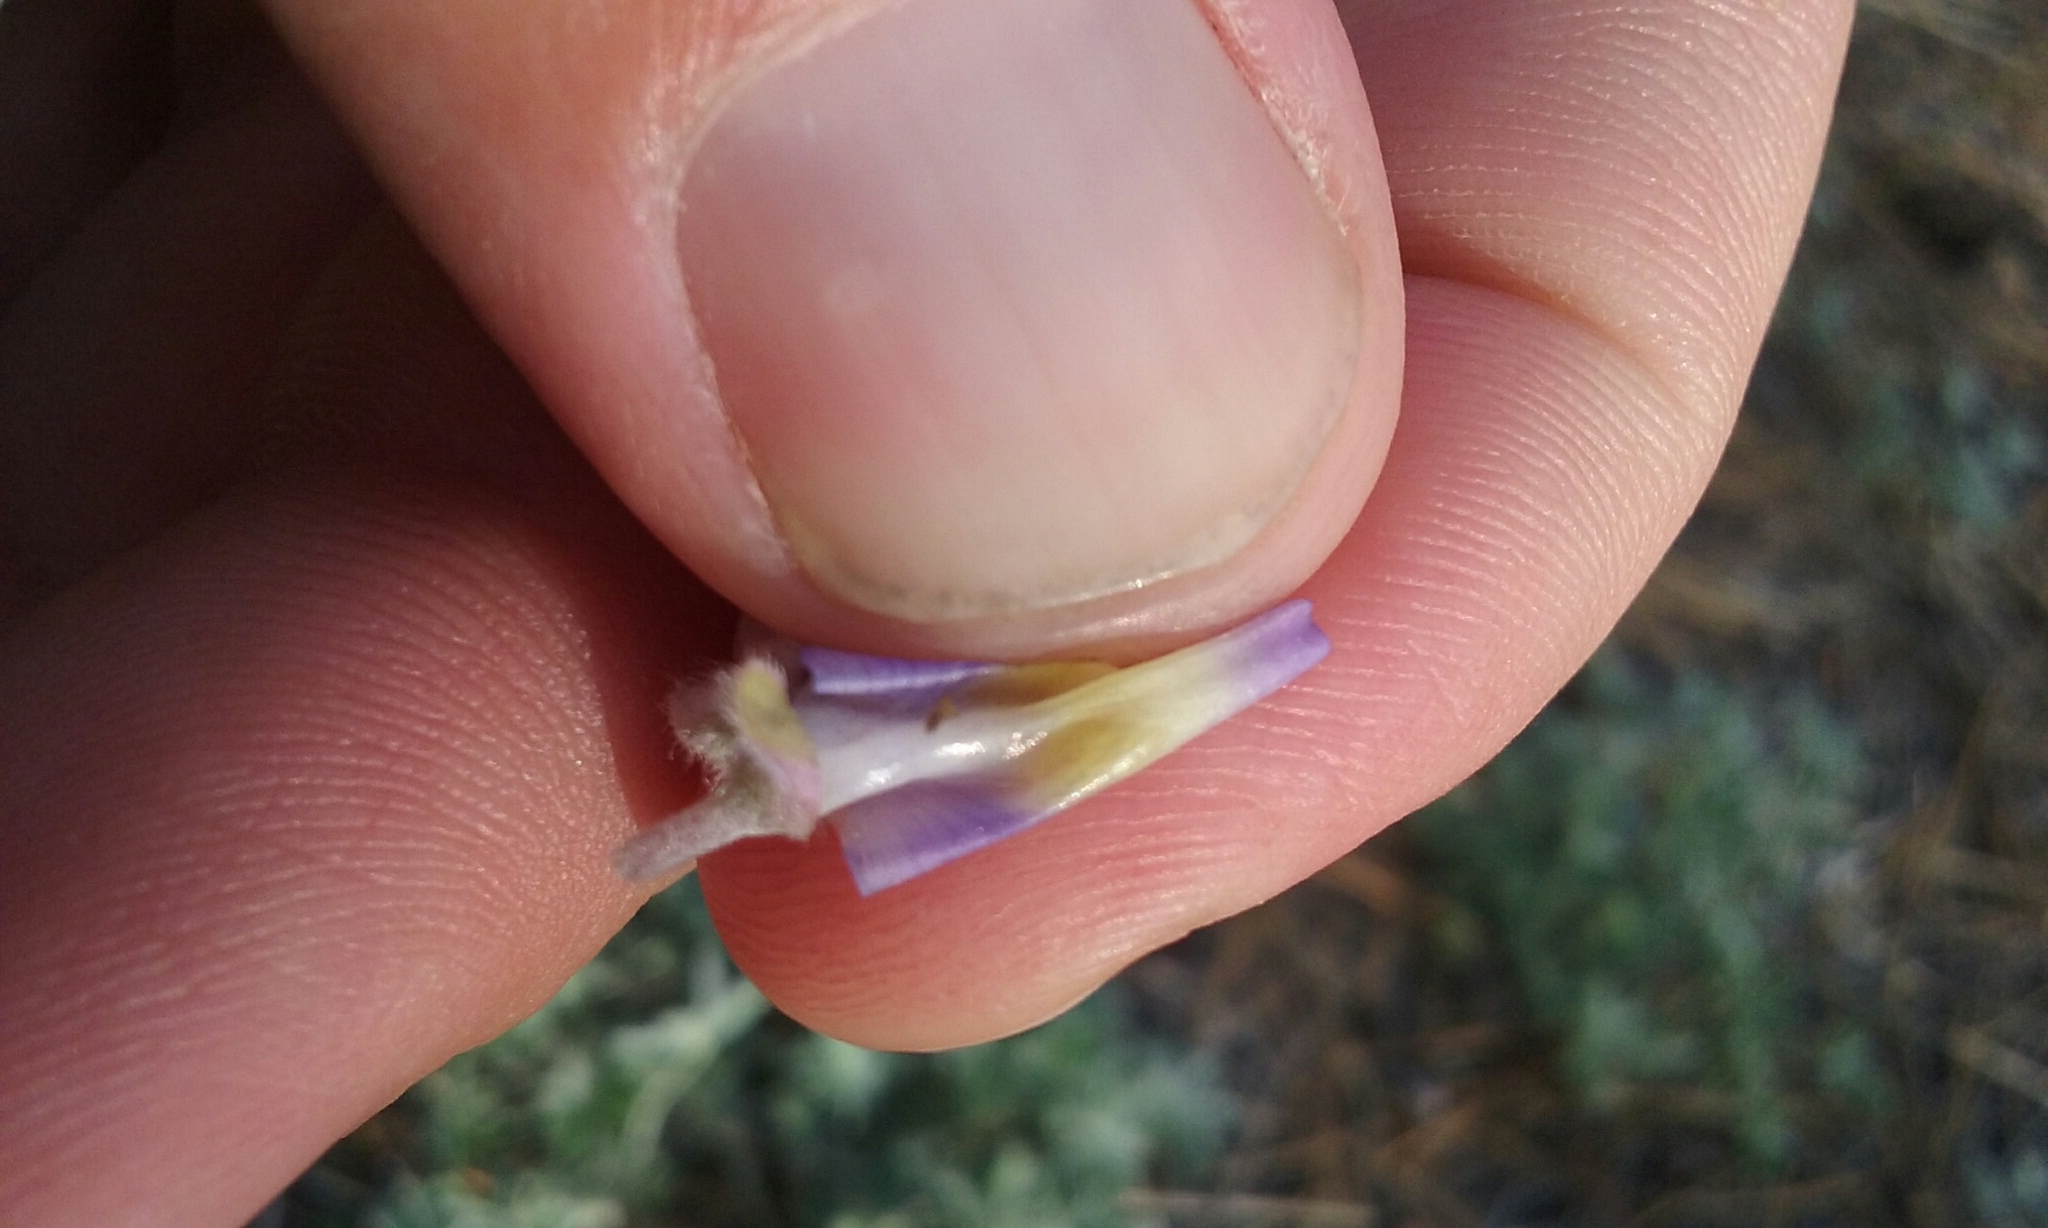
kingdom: Plantae
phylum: Tracheophyta
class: Magnoliopsida
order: Fabales
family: Fabaceae
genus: Lupinus
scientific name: Lupinus grayi
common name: Sierra lupine
